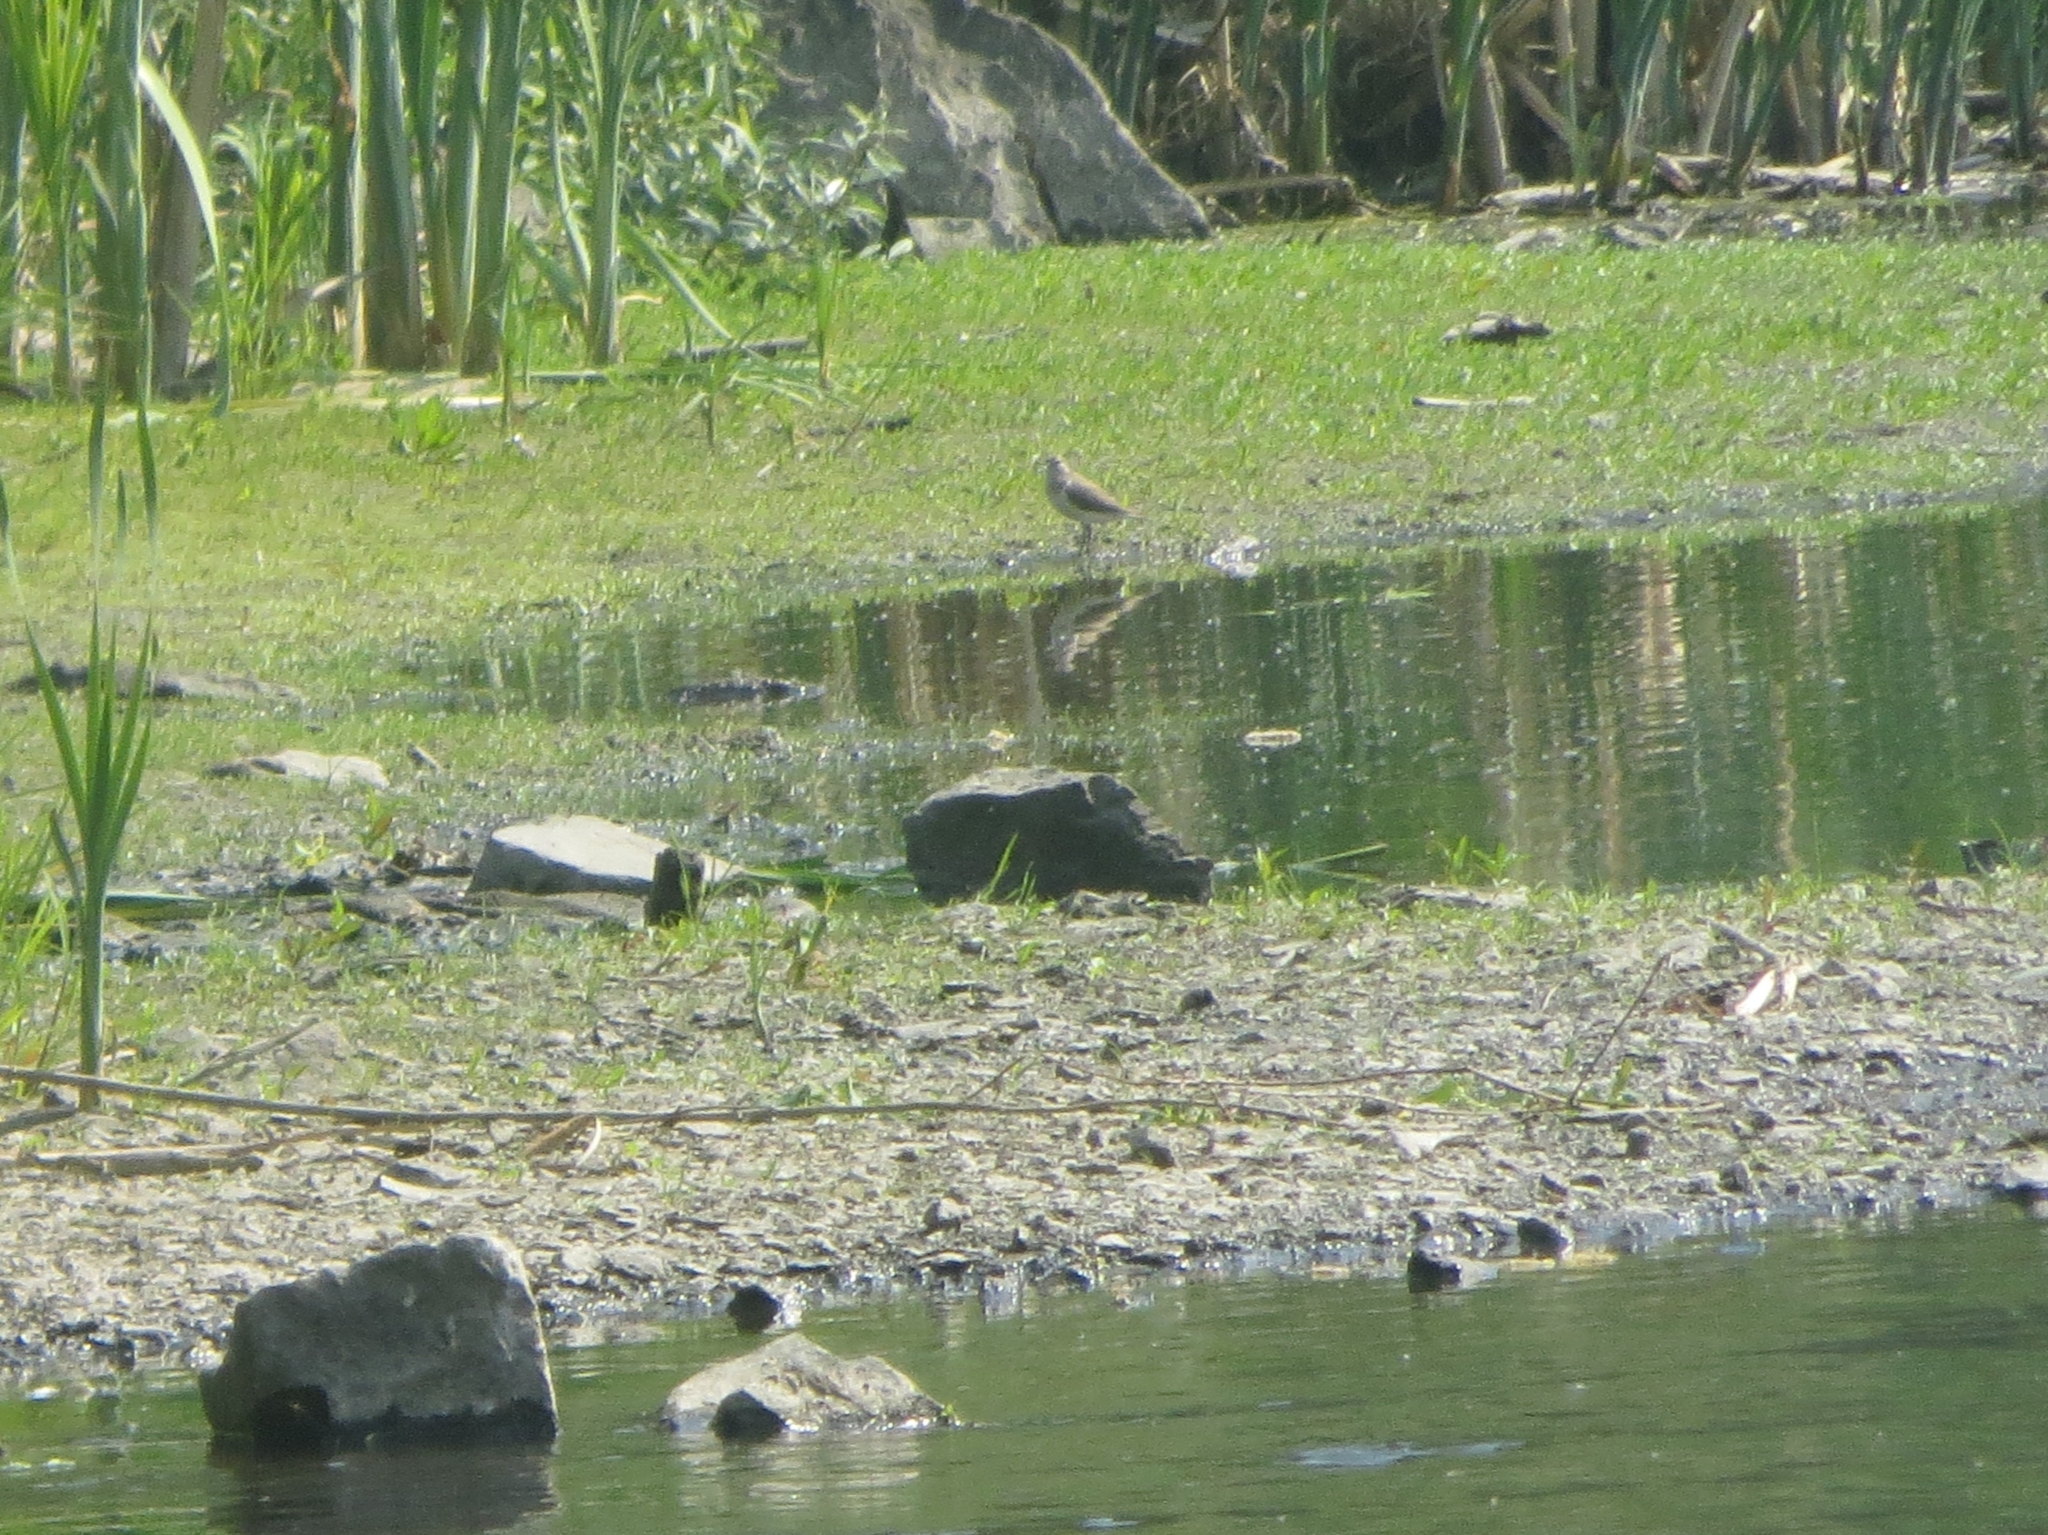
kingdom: Animalia
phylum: Chordata
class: Aves
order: Charadriiformes
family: Scolopacidae
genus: Actitis
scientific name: Actitis hypoleucos
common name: Common sandpiper
